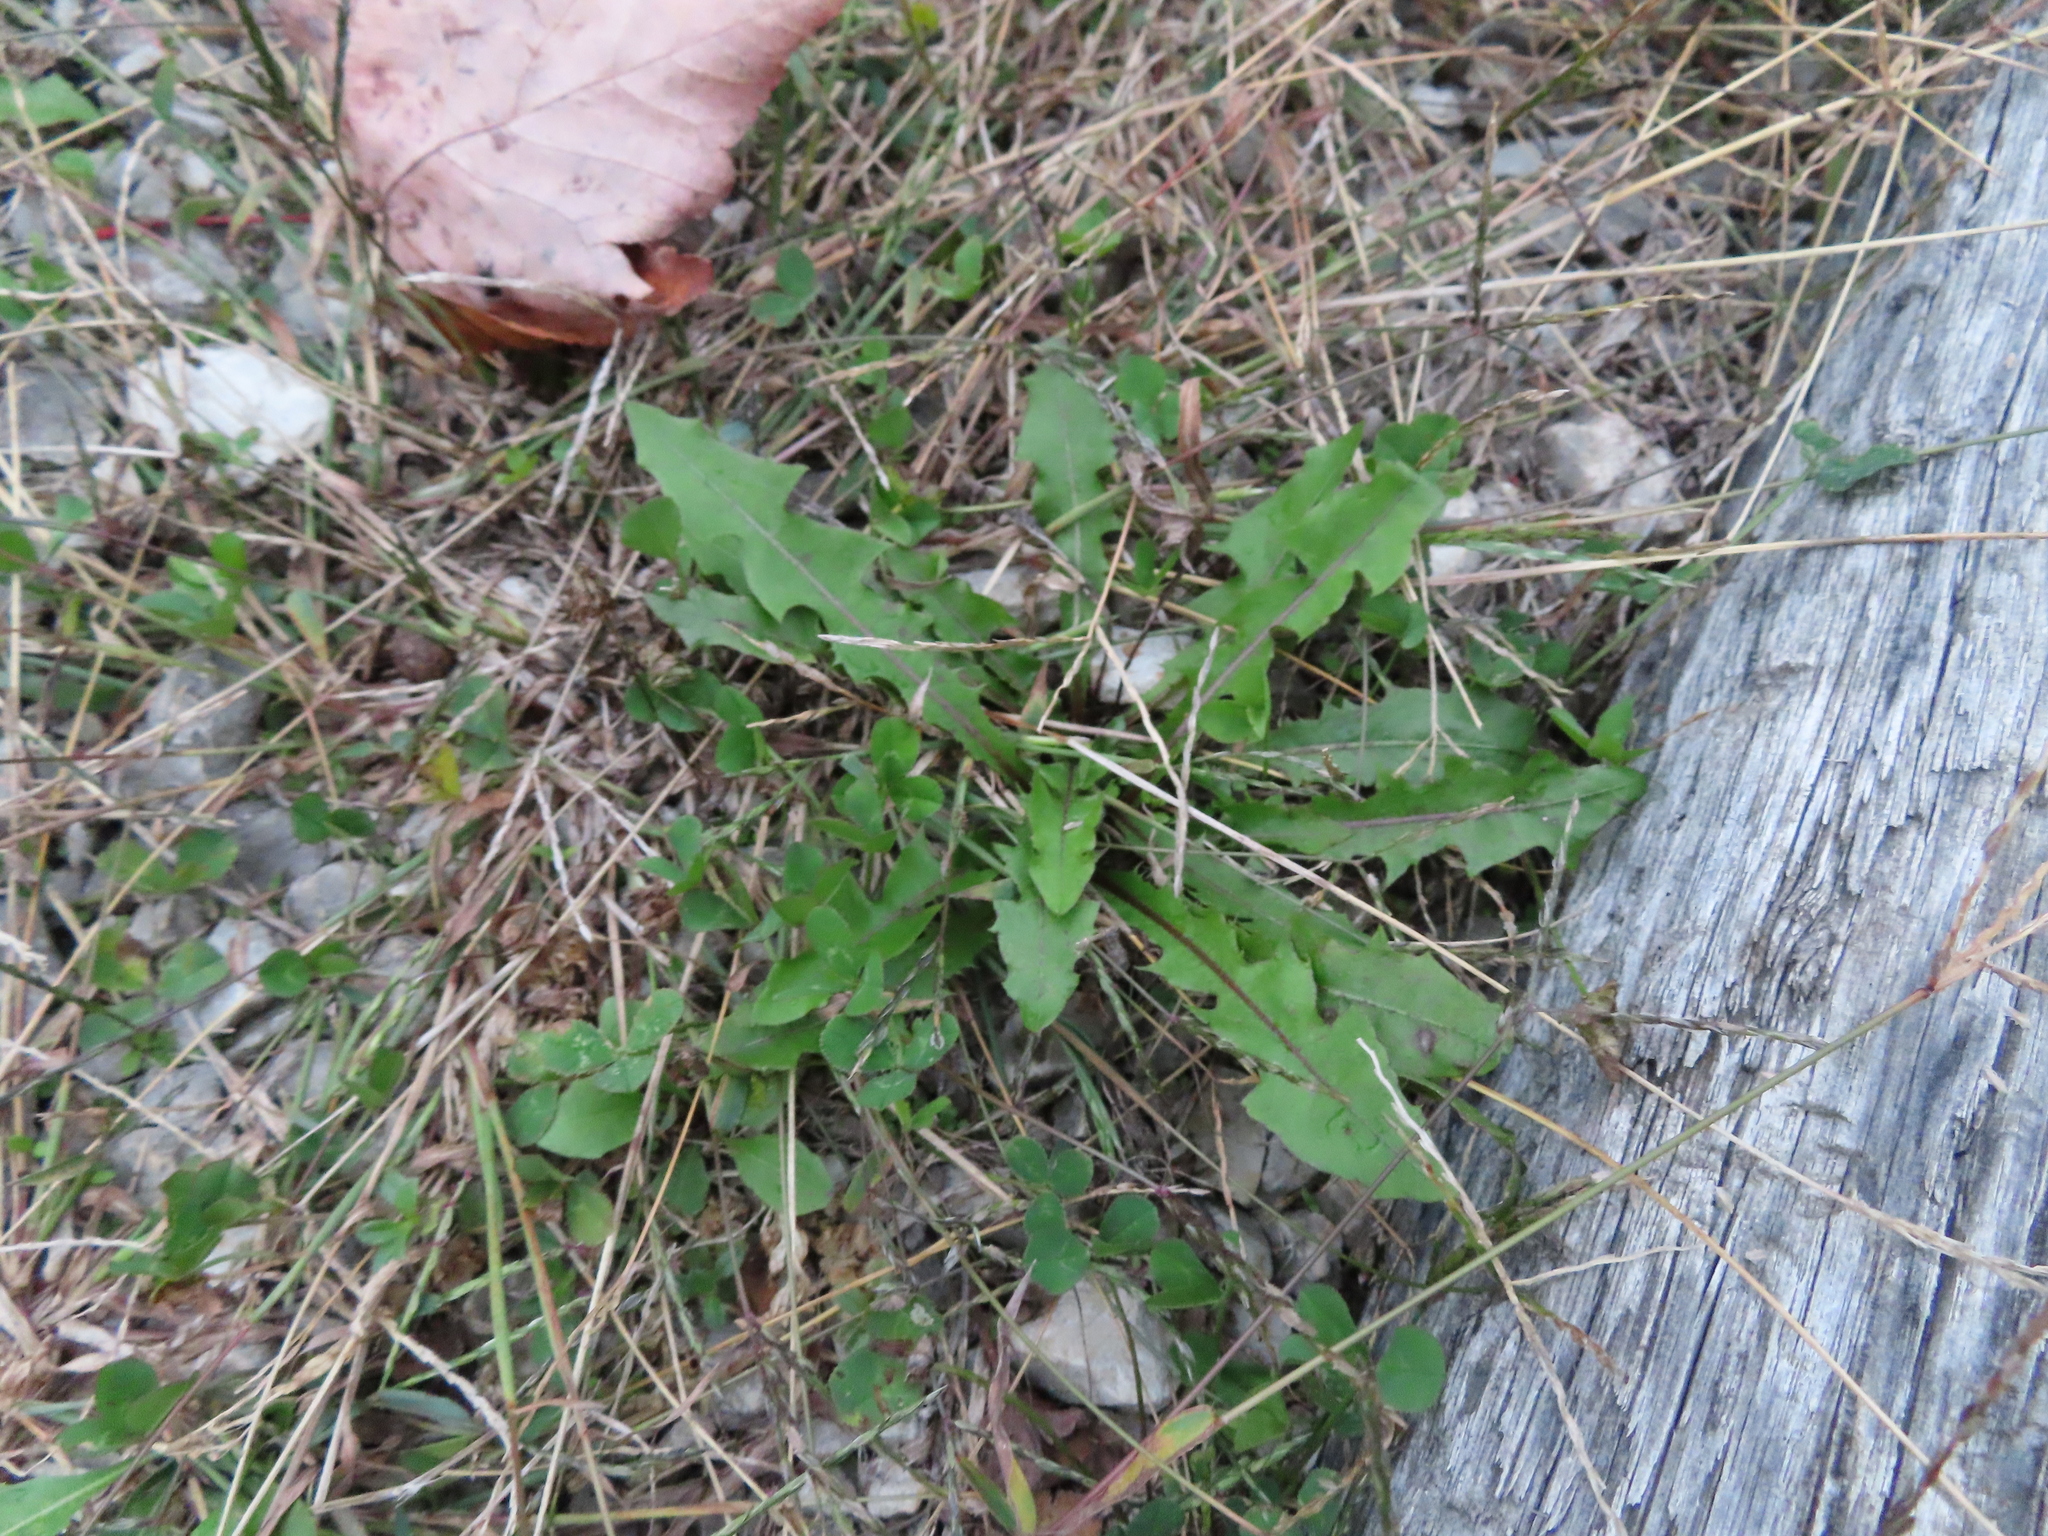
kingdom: Plantae
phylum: Tracheophyta
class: Magnoliopsida
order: Asterales
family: Asteraceae
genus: Taraxacum
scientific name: Taraxacum
